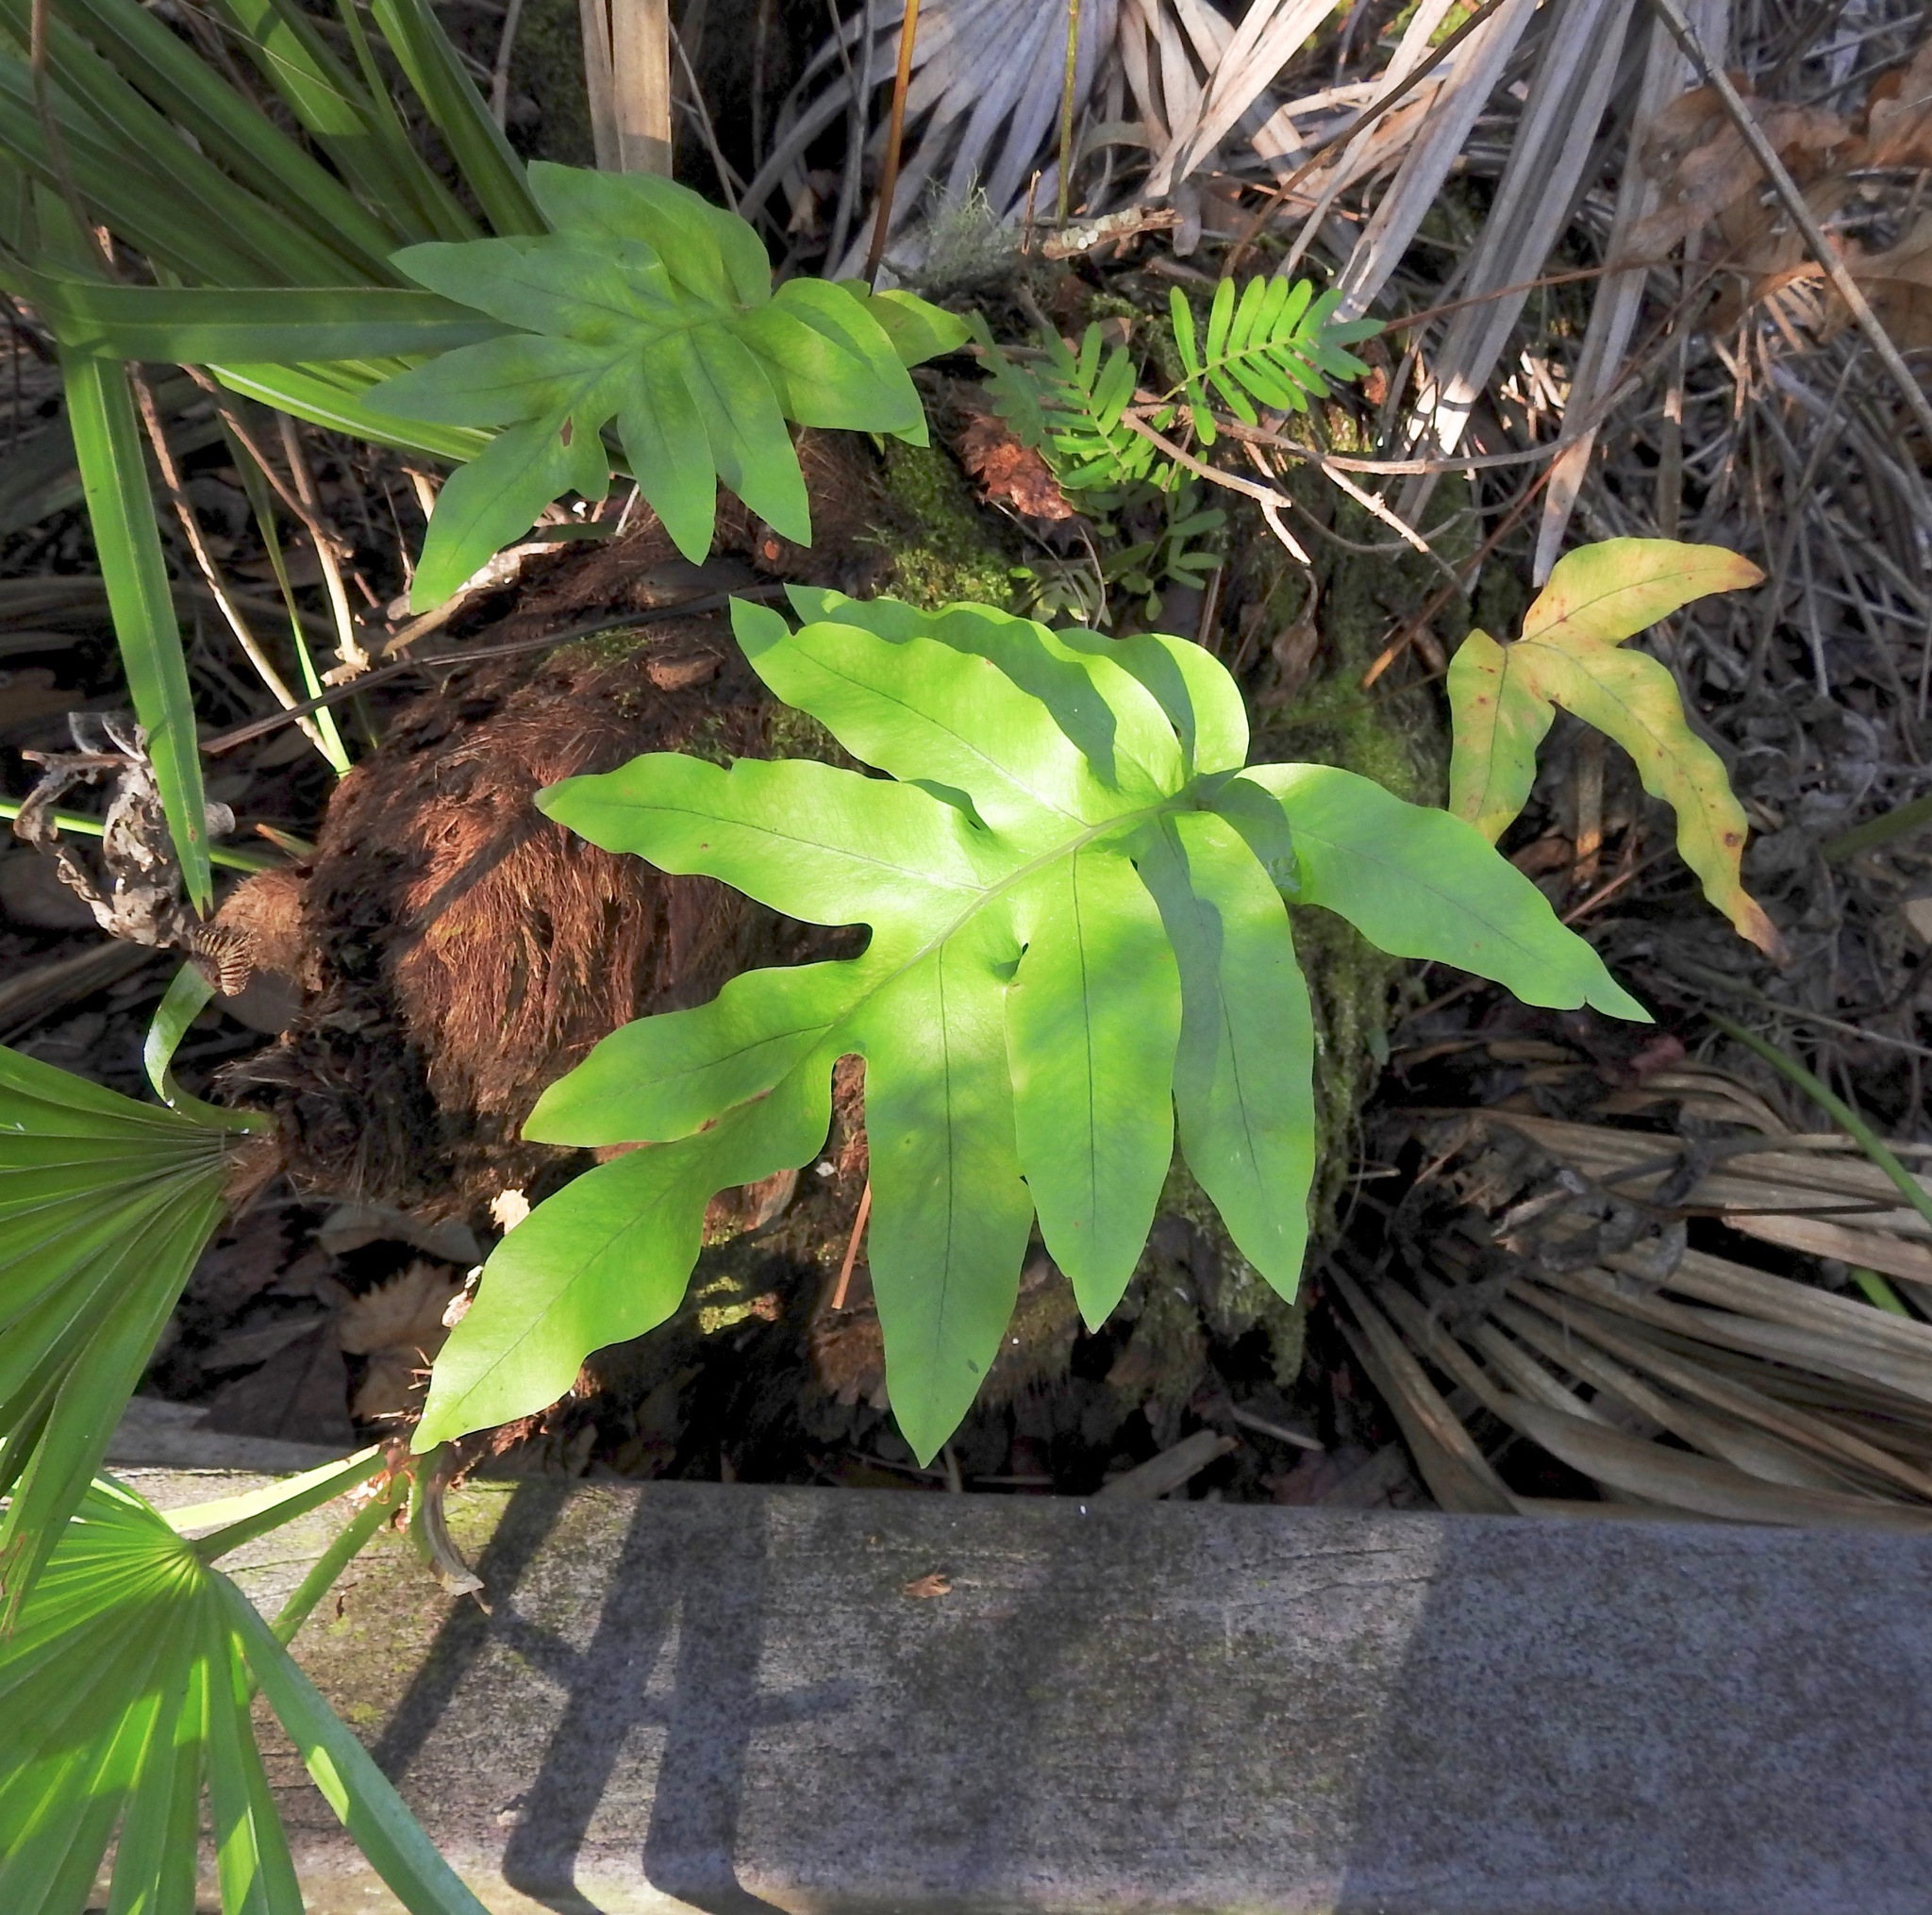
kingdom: Plantae
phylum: Tracheophyta
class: Polypodiopsida
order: Polypodiales
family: Polypodiaceae
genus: Phlebodium
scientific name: Phlebodium aureum
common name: Gold-foot fern
